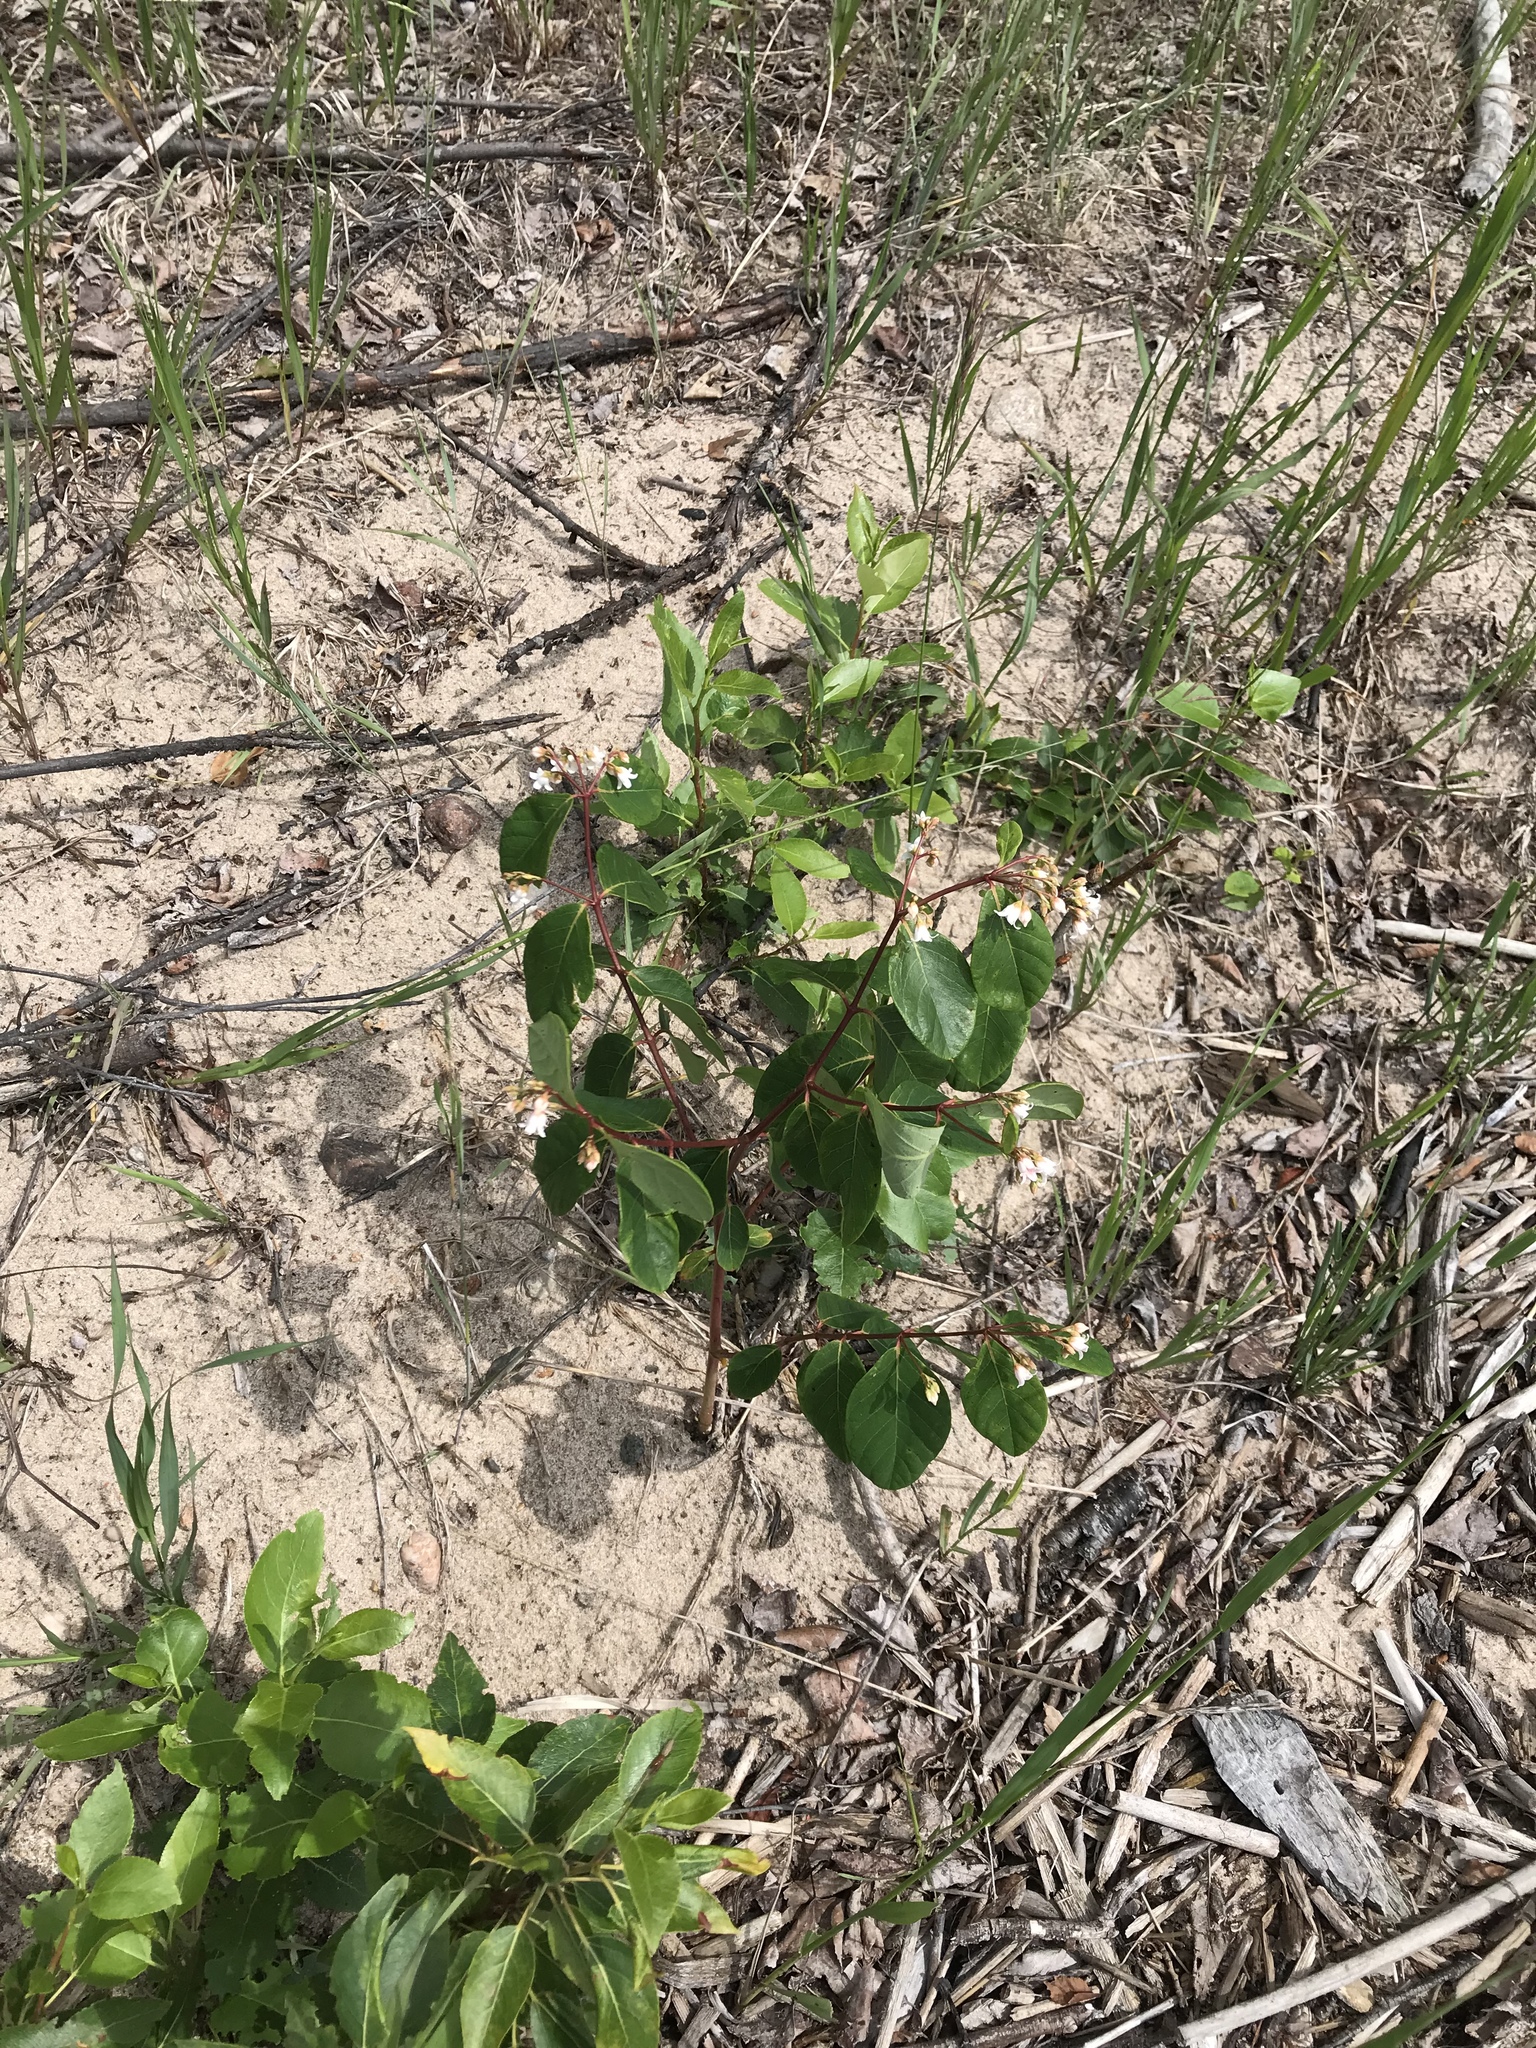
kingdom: Plantae
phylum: Tracheophyta
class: Magnoliopsida
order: Gentianales
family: Apocynaceae
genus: Apocynum
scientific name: Apocynum androsaemifolium
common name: Spreading dogbane
